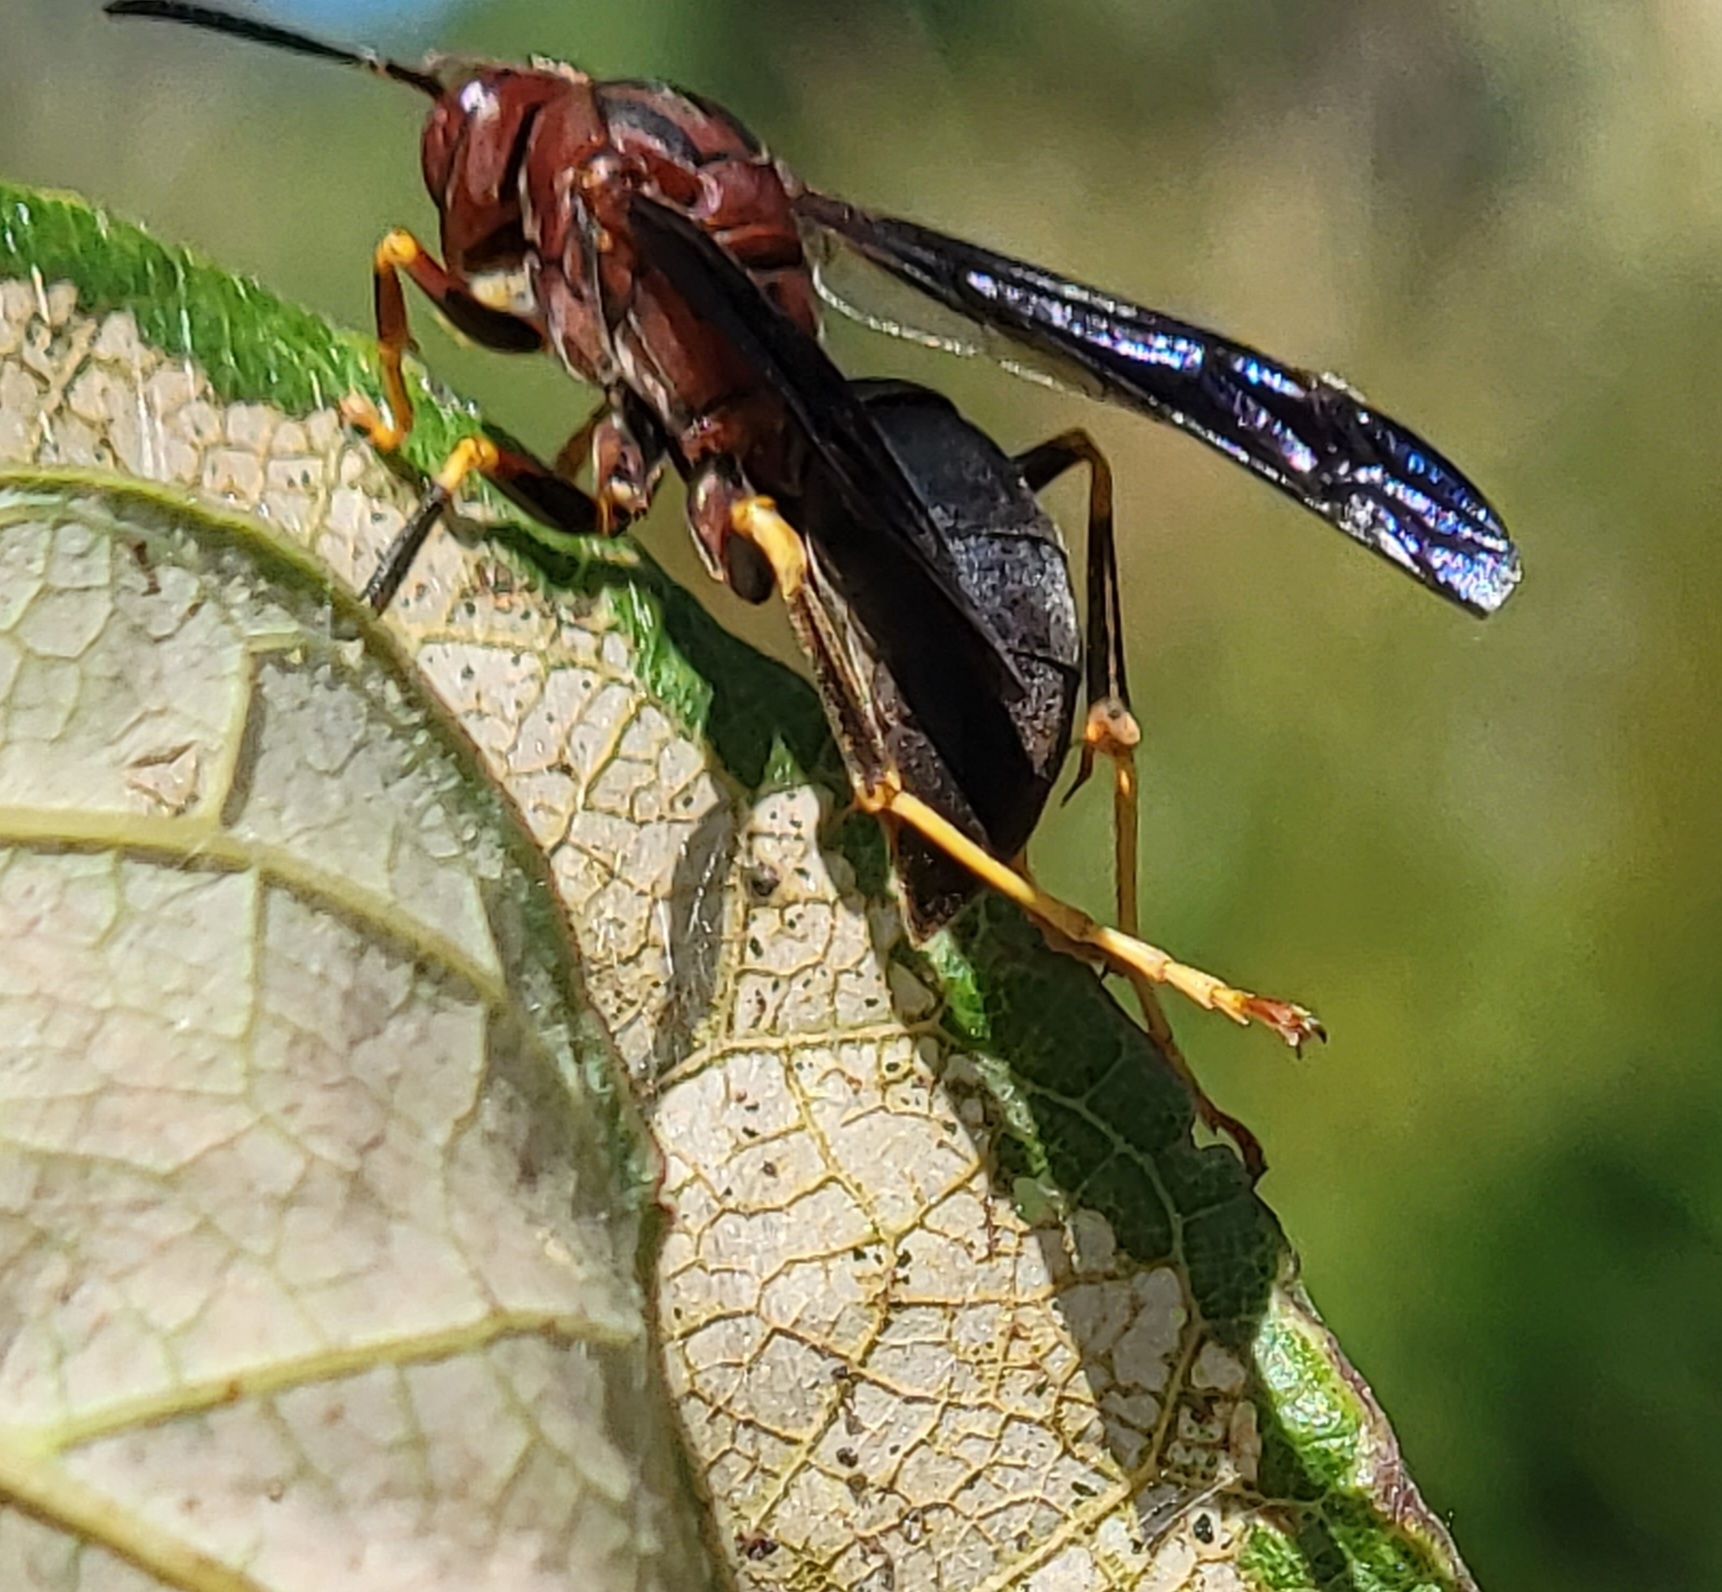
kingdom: Animalia
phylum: Arthropoda
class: Insecta
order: Hymenoptera
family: Eumenidae
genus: Polistes
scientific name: Polistes metricus
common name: Metric paper wasp
